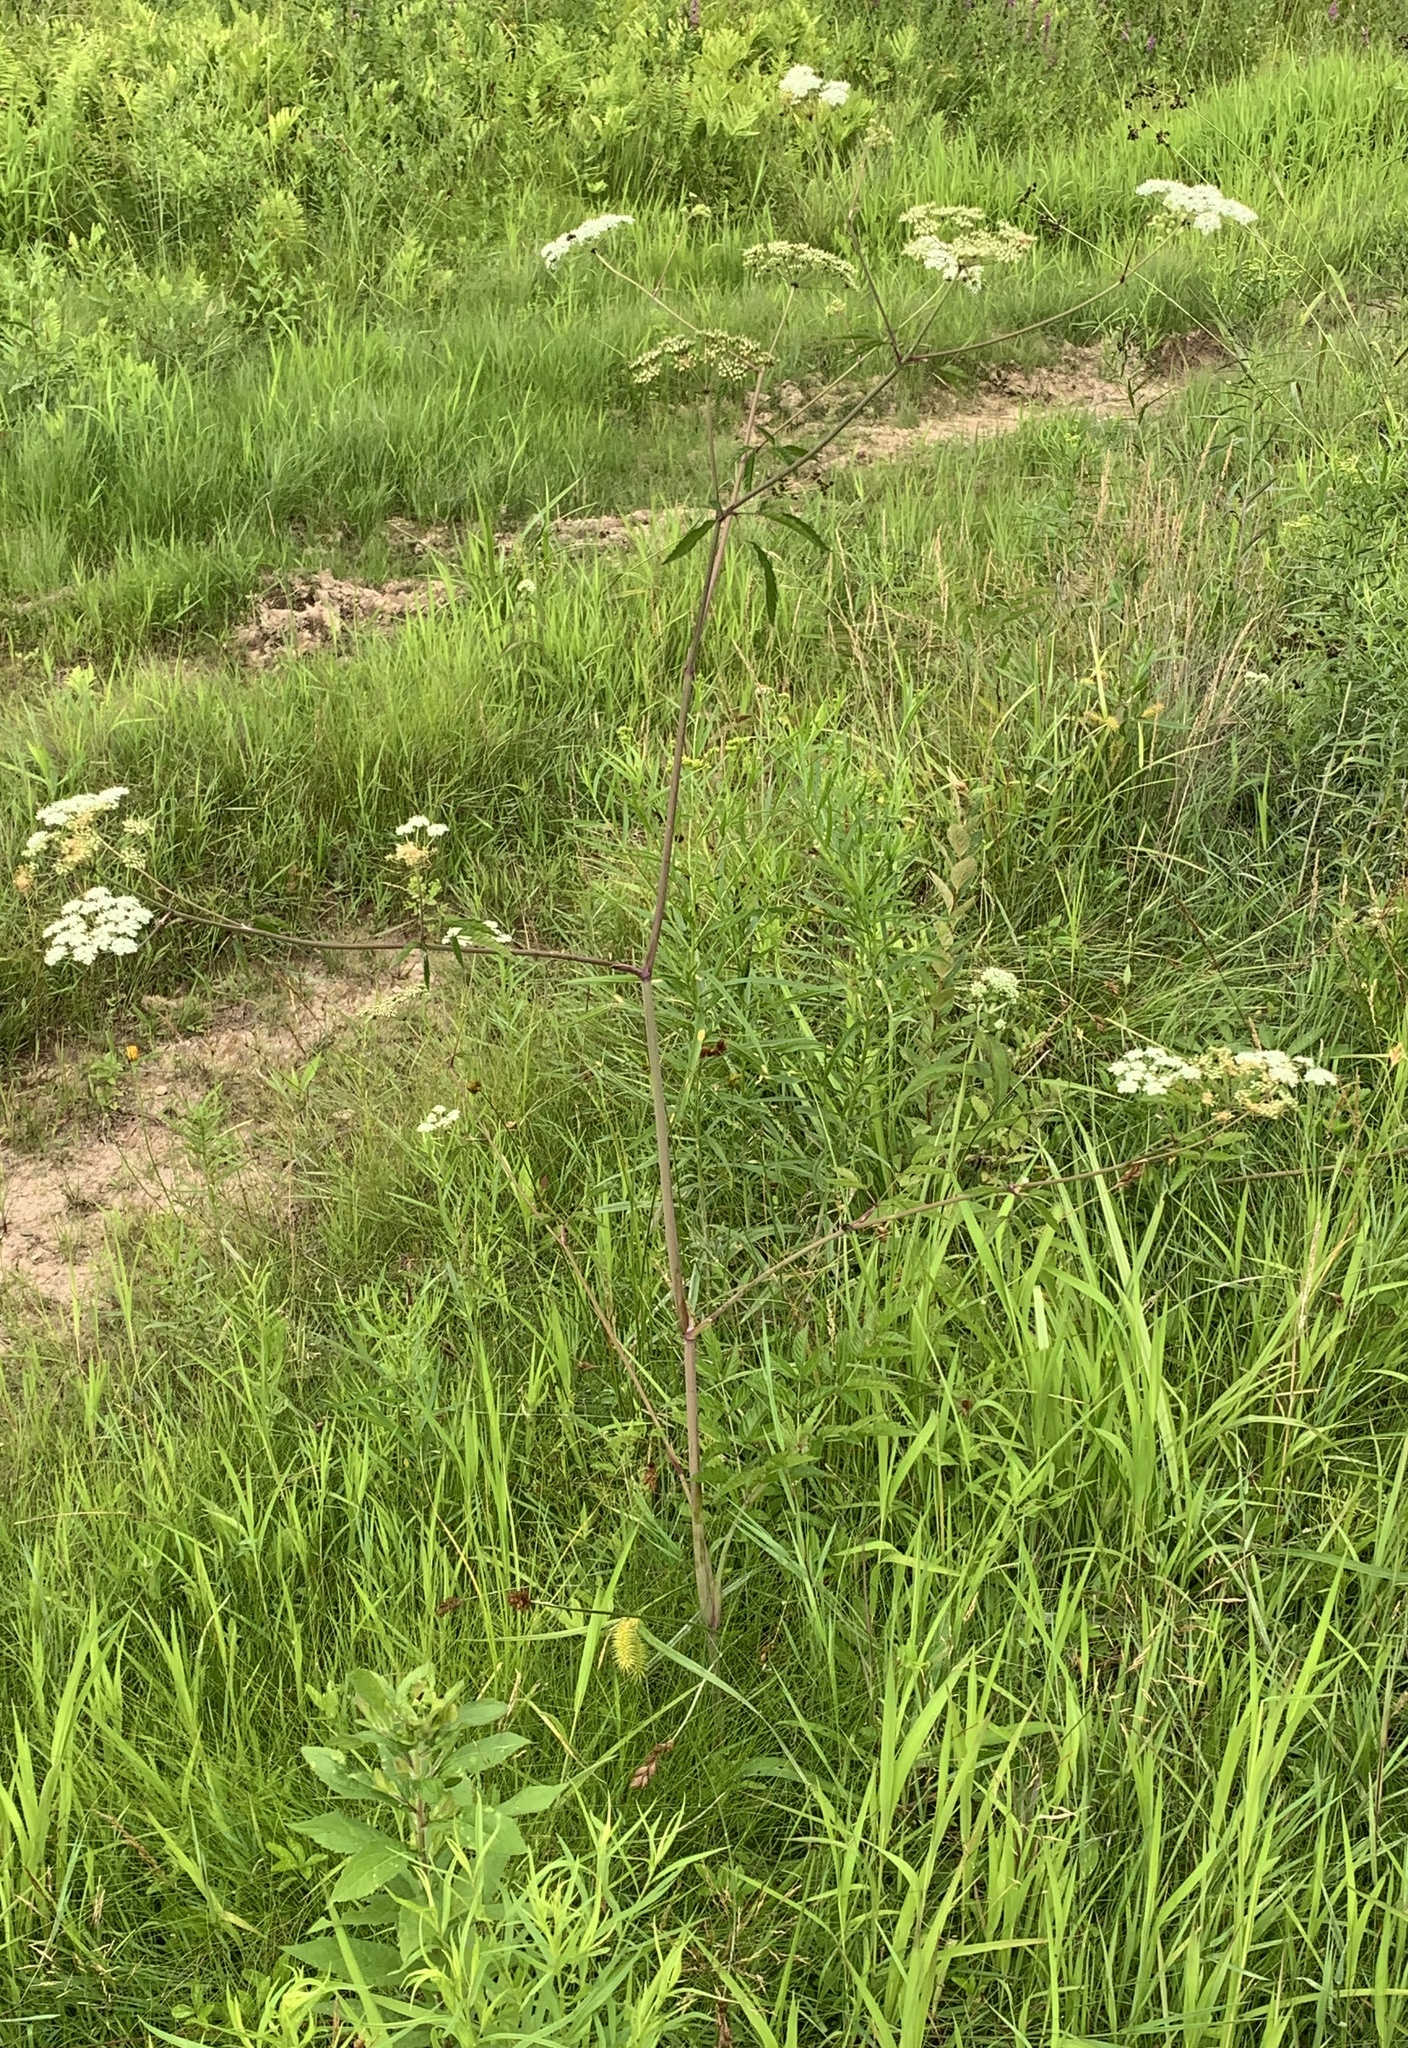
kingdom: Plantae
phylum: Tracheophyta
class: Magnoliopsida
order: Apiales
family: Apiaceae
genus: Cicuta
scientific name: Cicuta maculata
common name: Spotted cowbane
